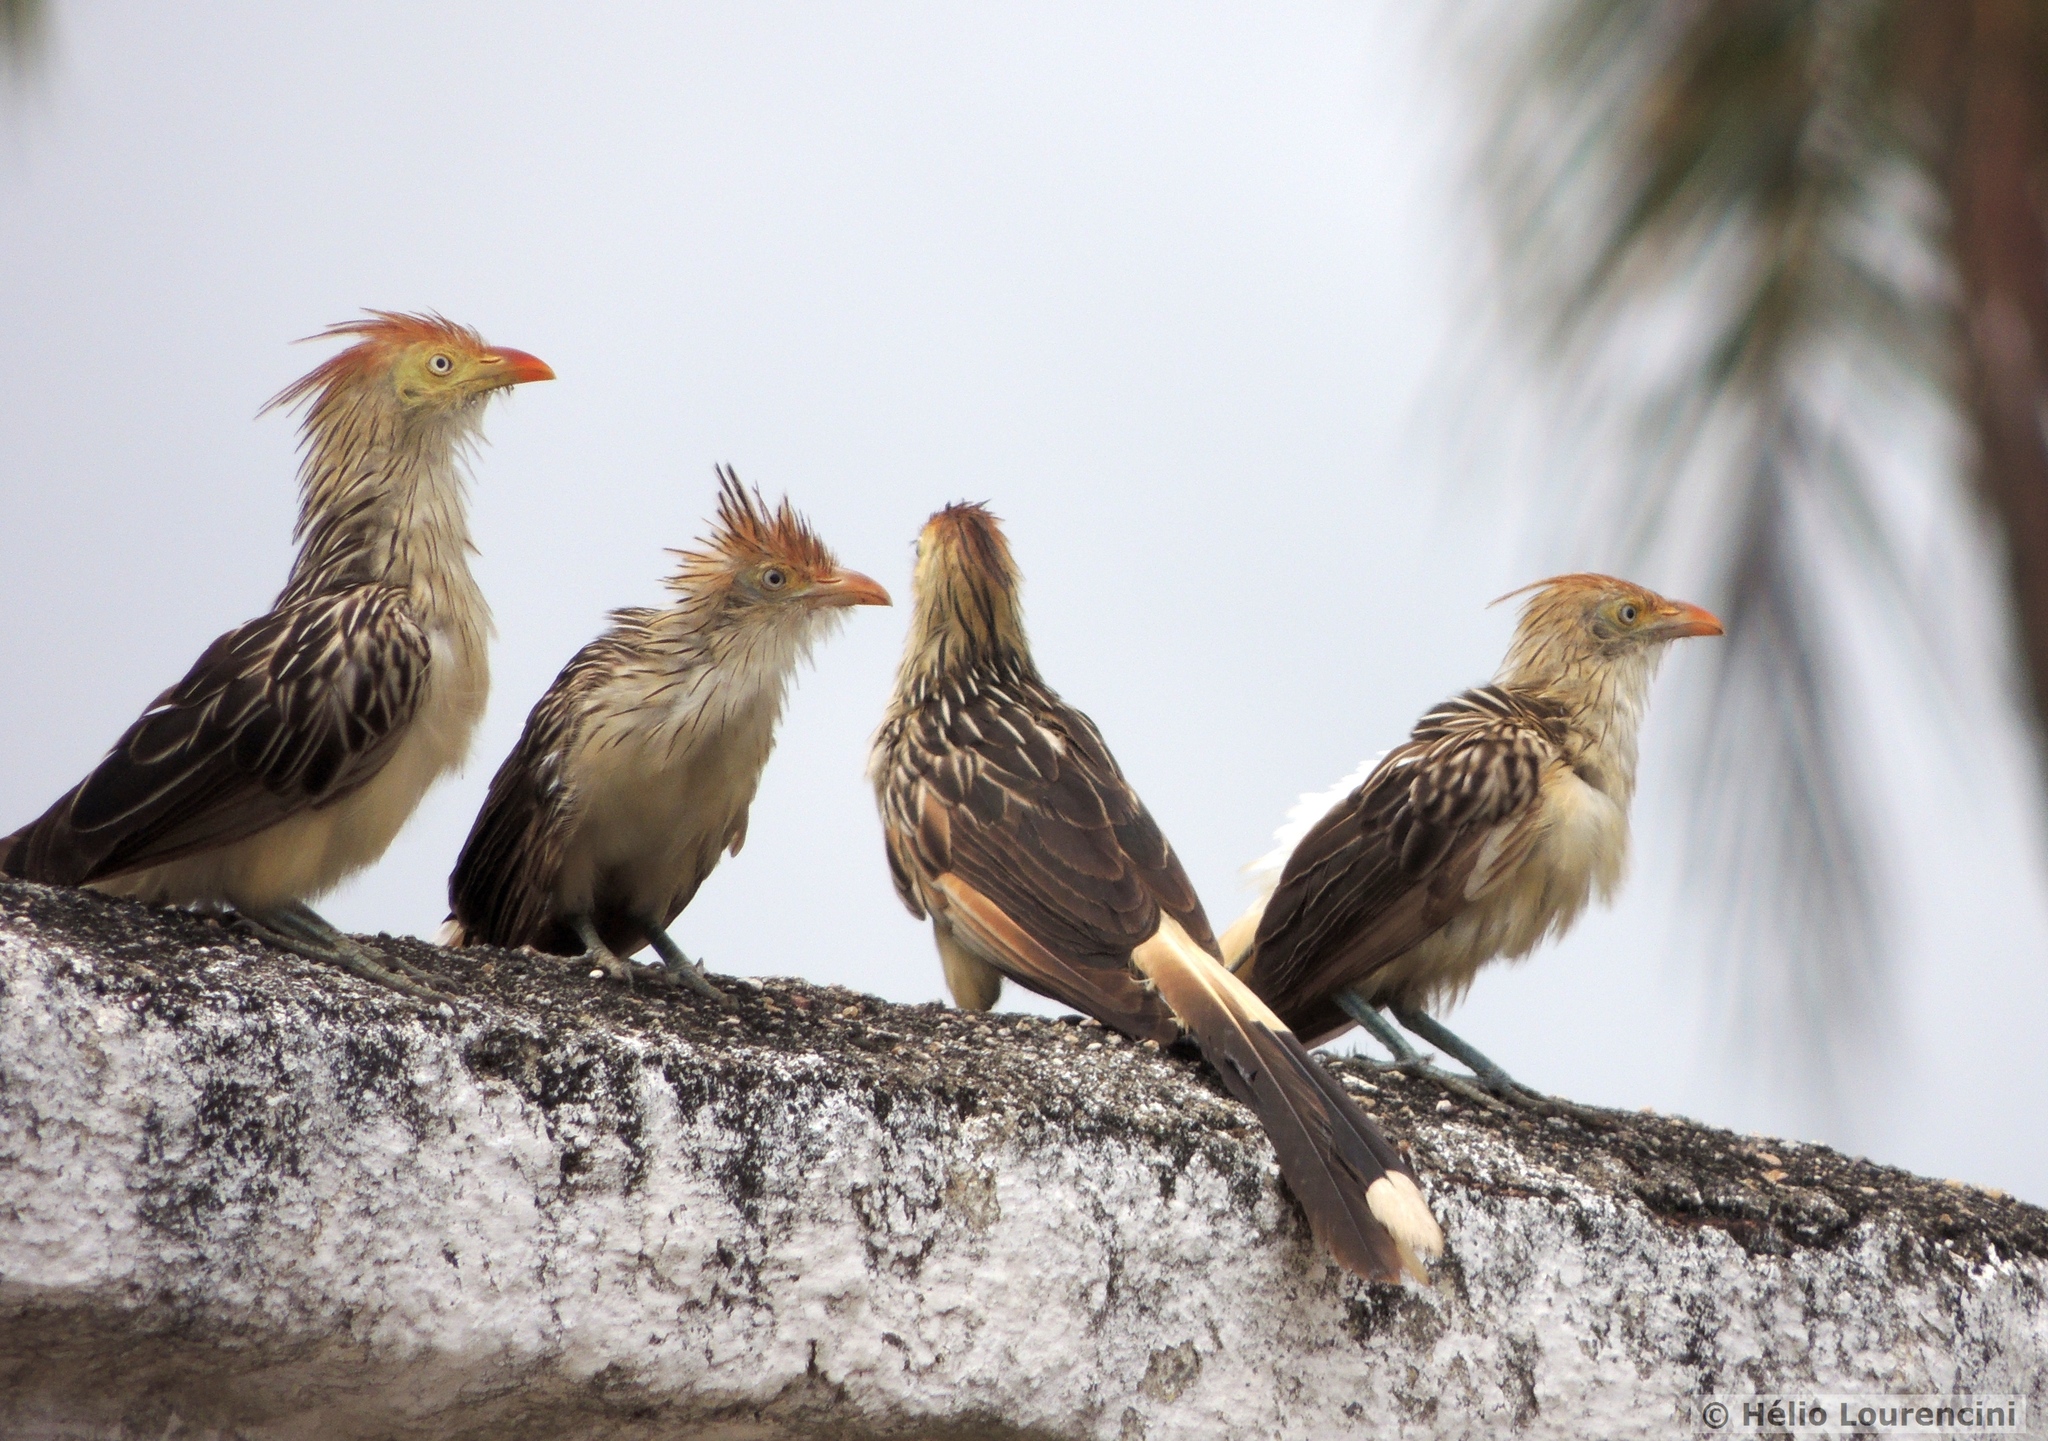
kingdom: Animalia
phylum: Chordata
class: Aves
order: Cuculiformes
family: Cuculidae
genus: Guira
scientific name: Guira guira
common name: Guira cuckoo
